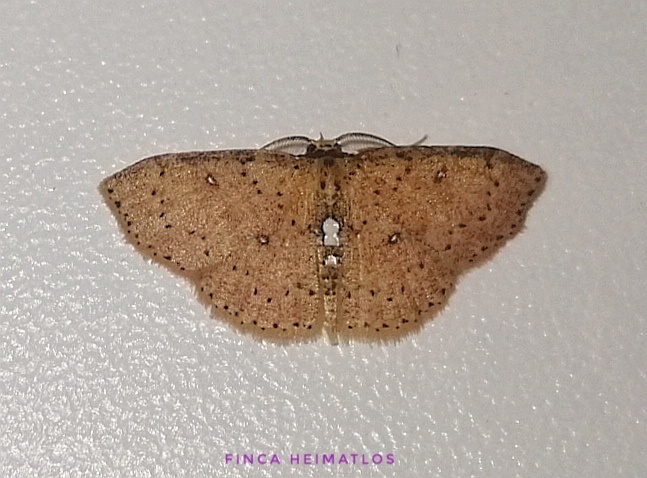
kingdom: Animalia
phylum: Arthropoda
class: Insecta
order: Lepidoptera
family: Geometridae
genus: Cyclophora
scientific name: Cyclophora megista
